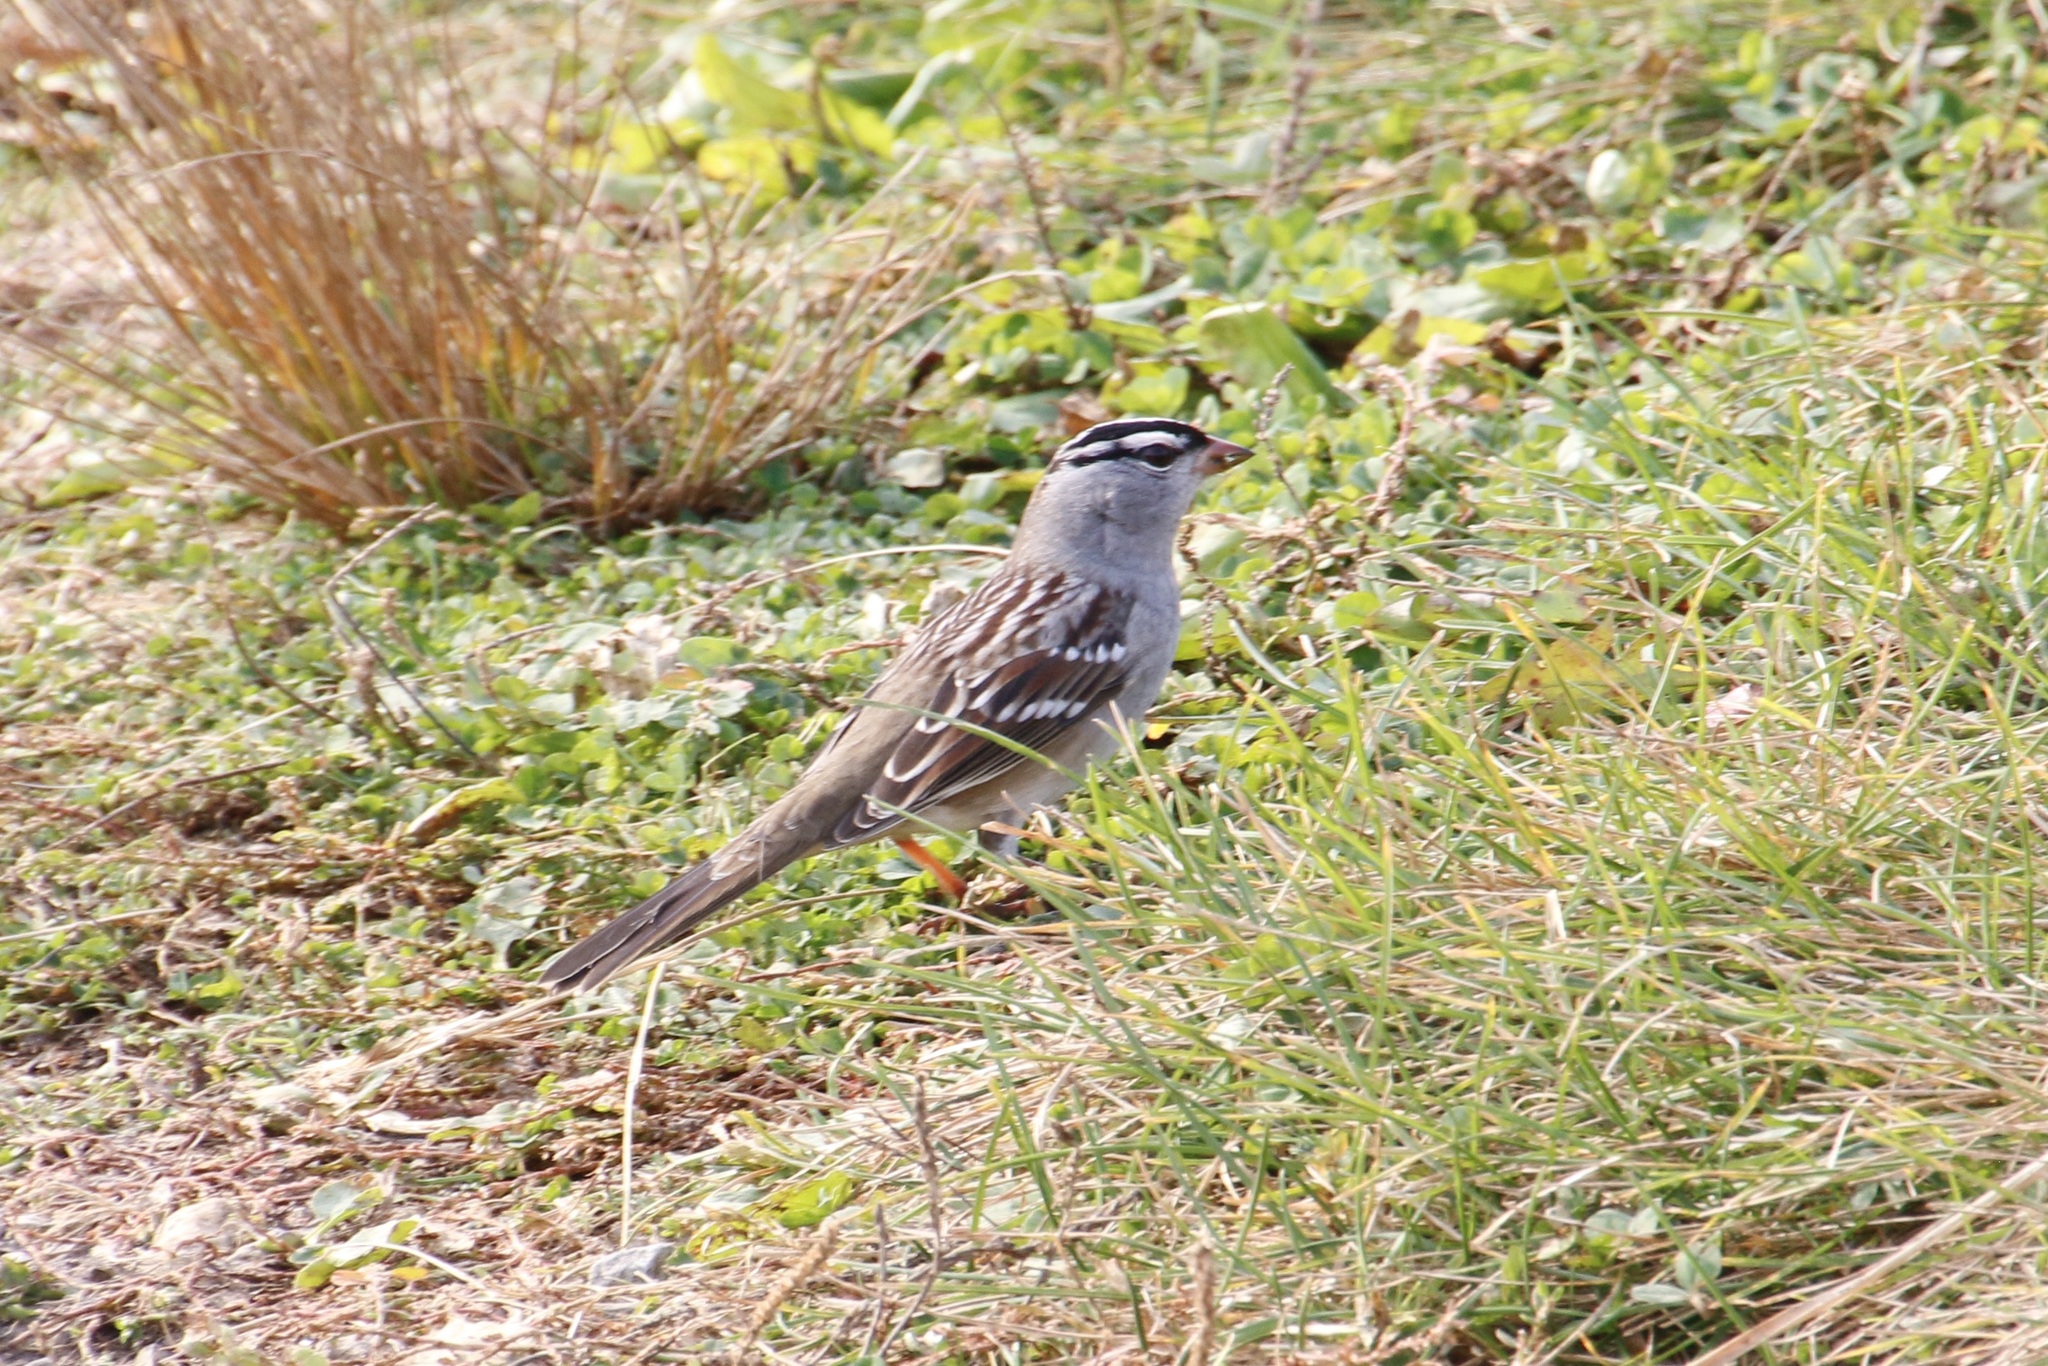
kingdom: Animalia
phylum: Chordata
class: Aves
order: Passeriformes
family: Passerellidae
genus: Zonotrichia
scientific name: Zonotrichia leucophrys
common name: White-crowned sparrow
